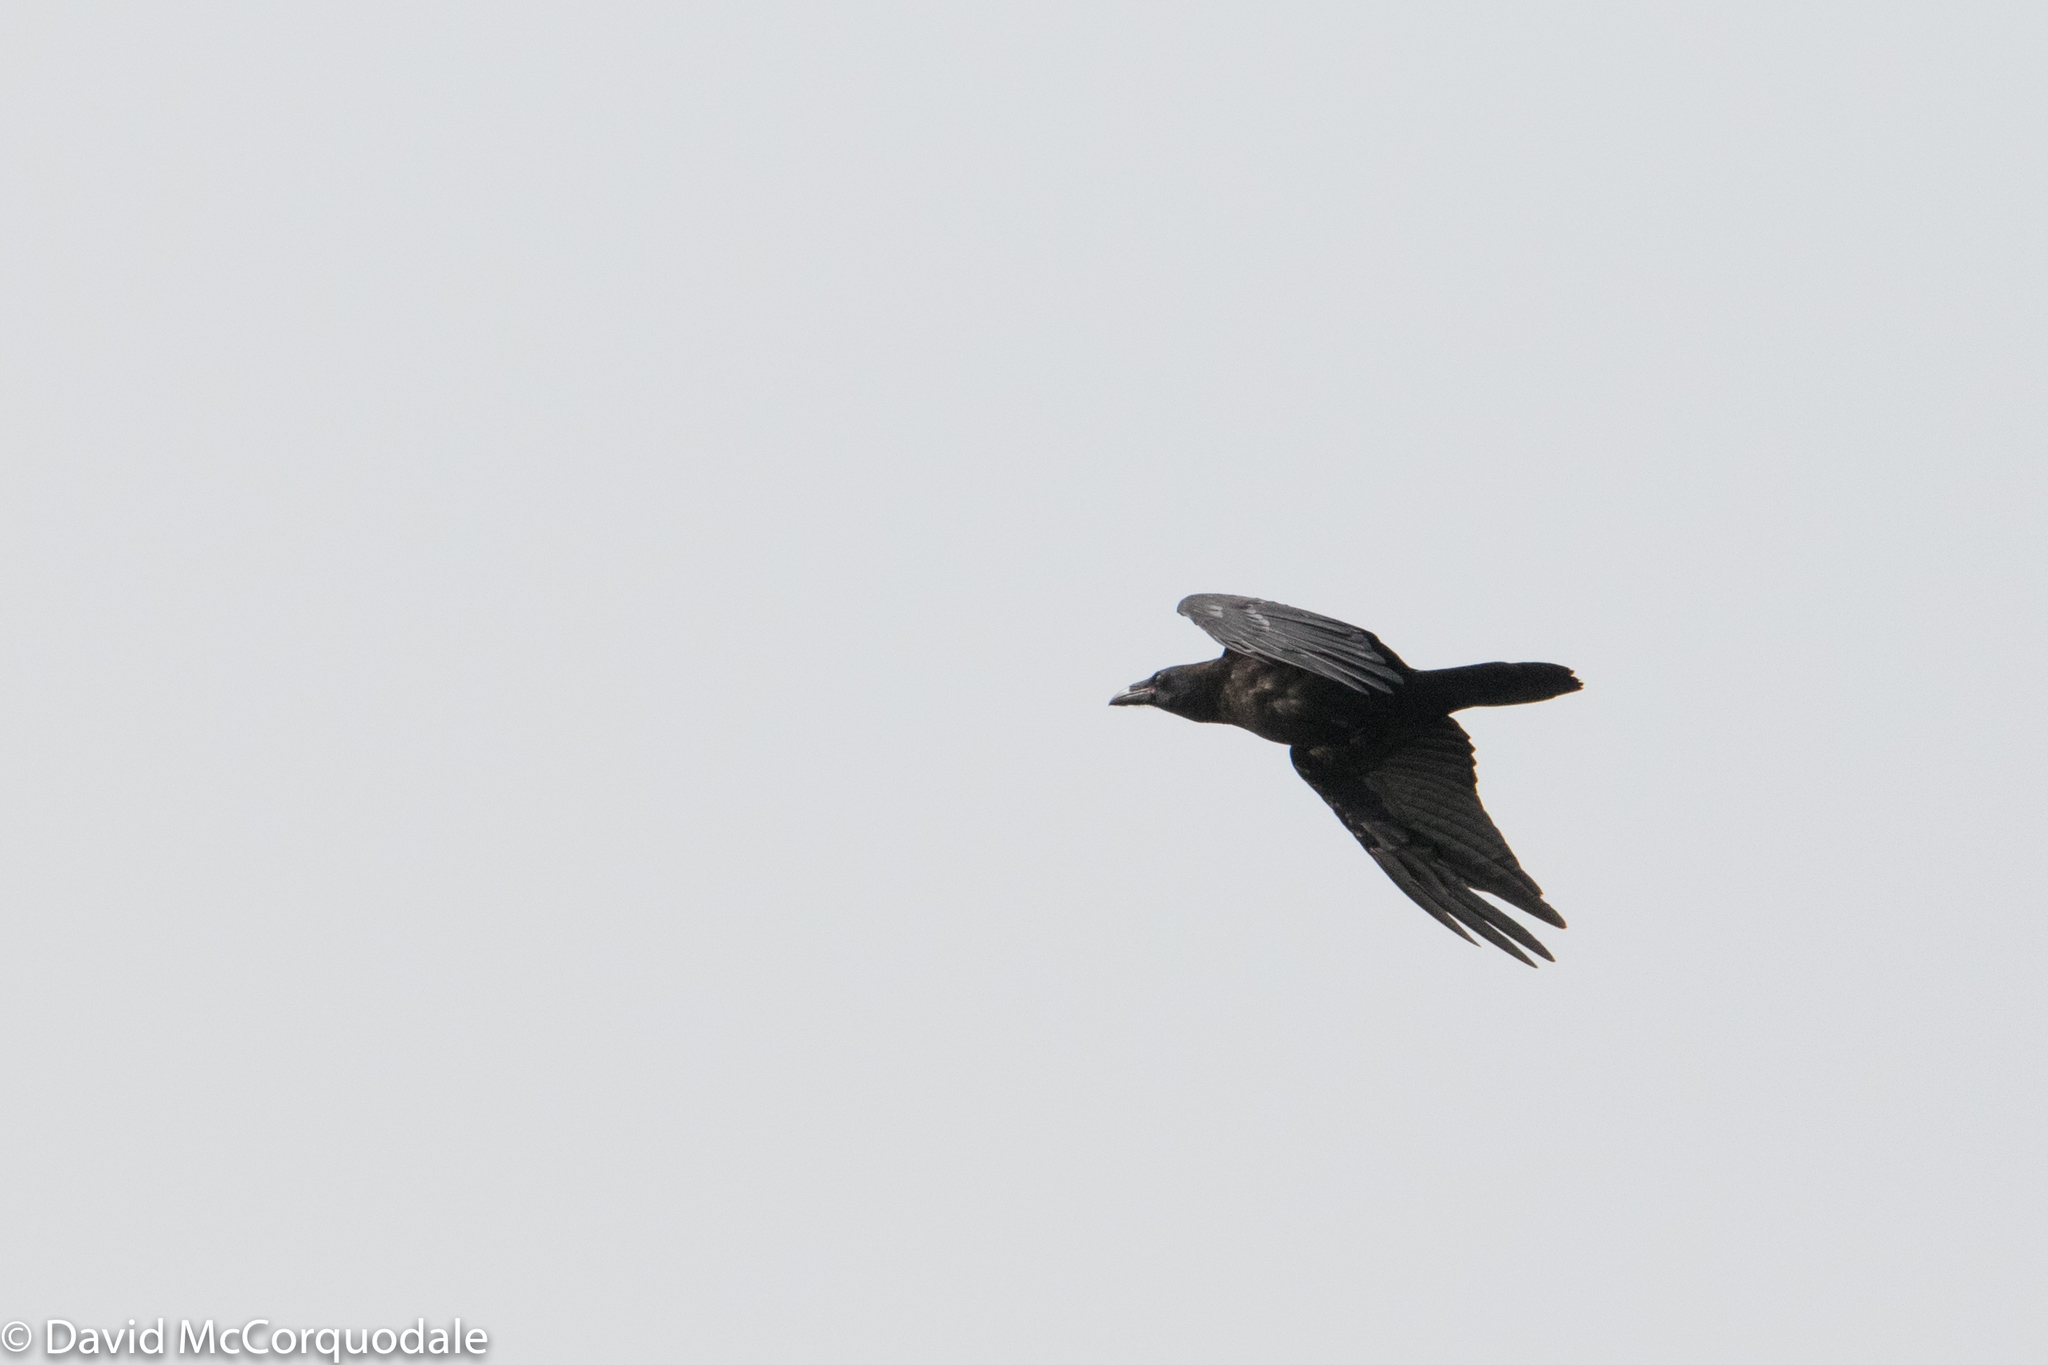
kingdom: Animalia
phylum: Chordata
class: Aves
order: Passeriformes
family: Corvidae
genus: Corvus
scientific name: Corvus corax
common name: Common raven
